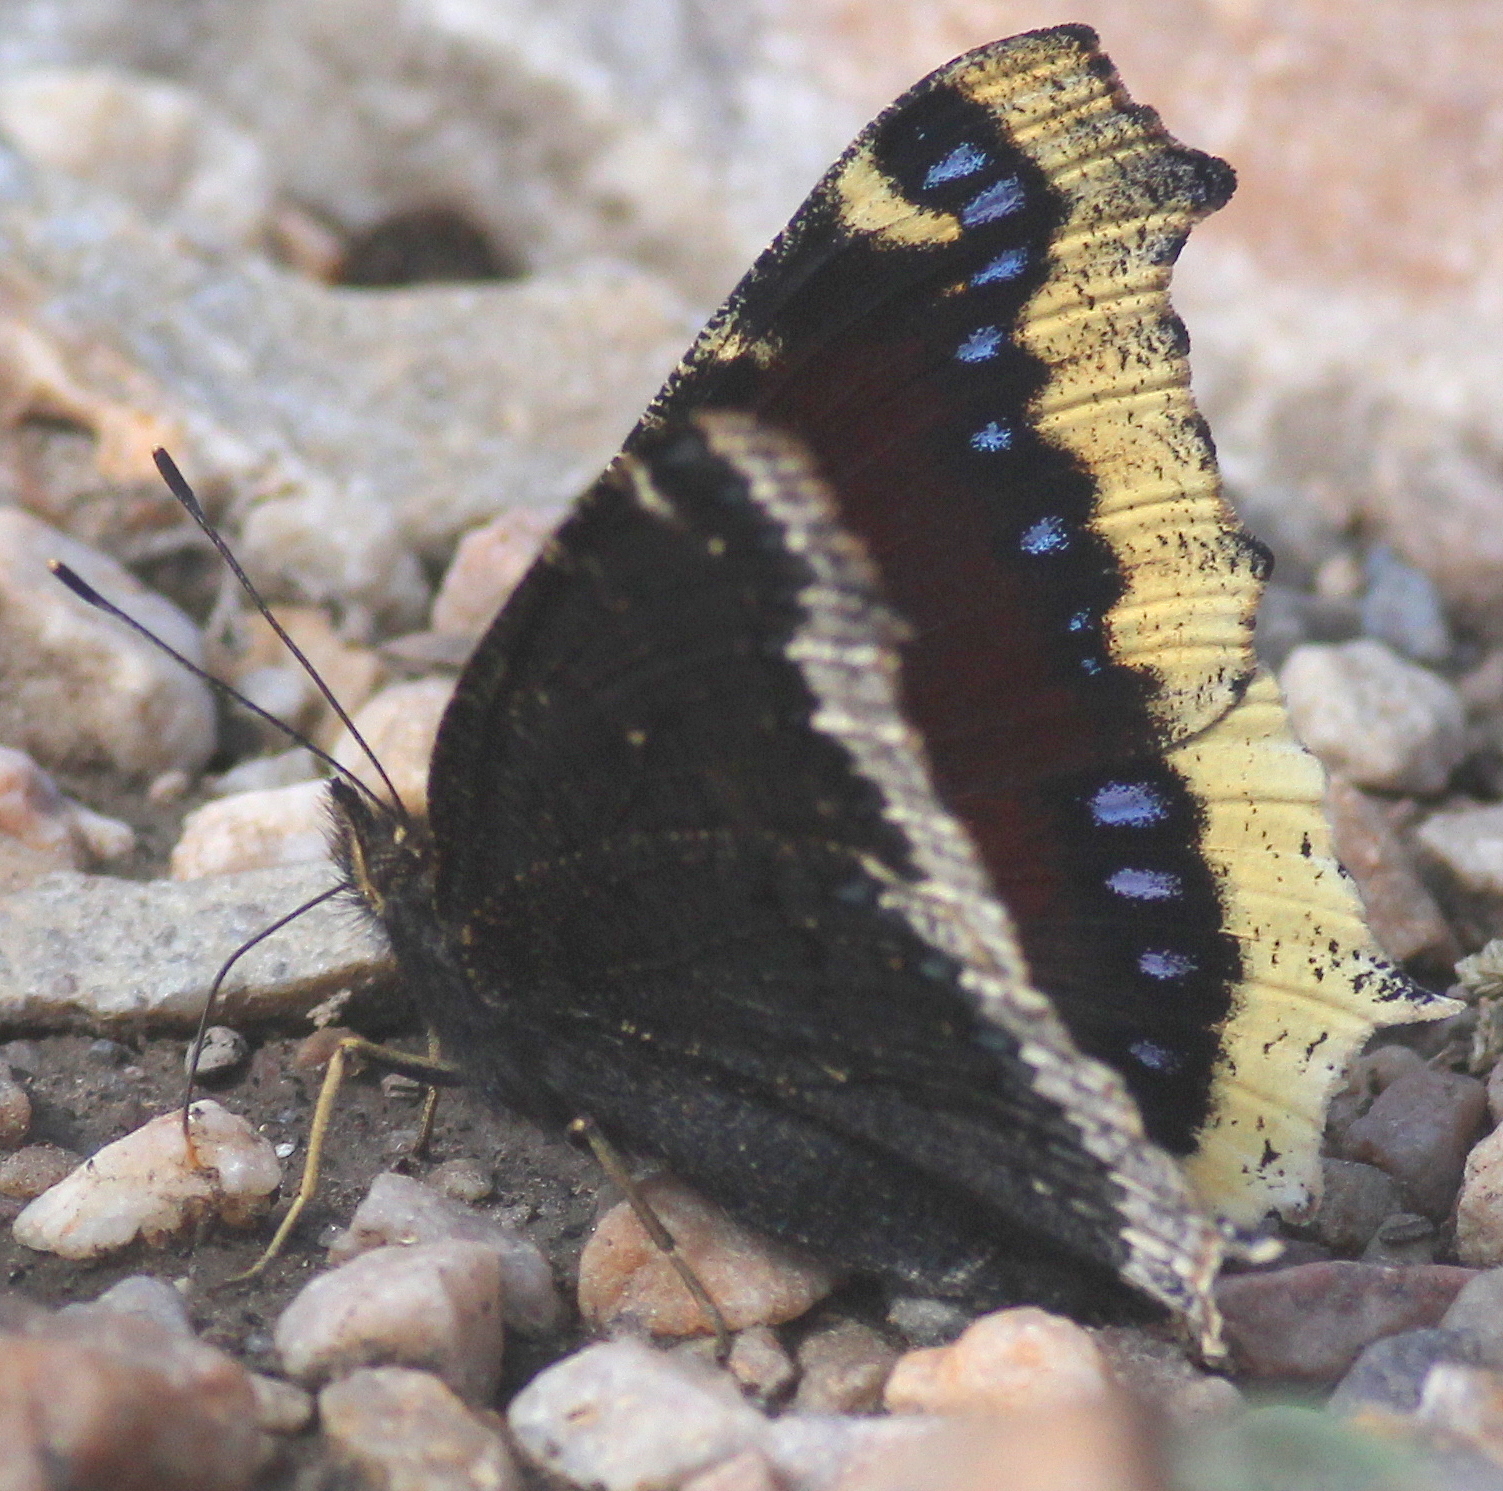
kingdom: Animalia
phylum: Arthropoda
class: Insecta
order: Lepidoptera
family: Nymphalidae
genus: Nymphalis
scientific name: Nymphalis antiopa
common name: Camberwell beauty
